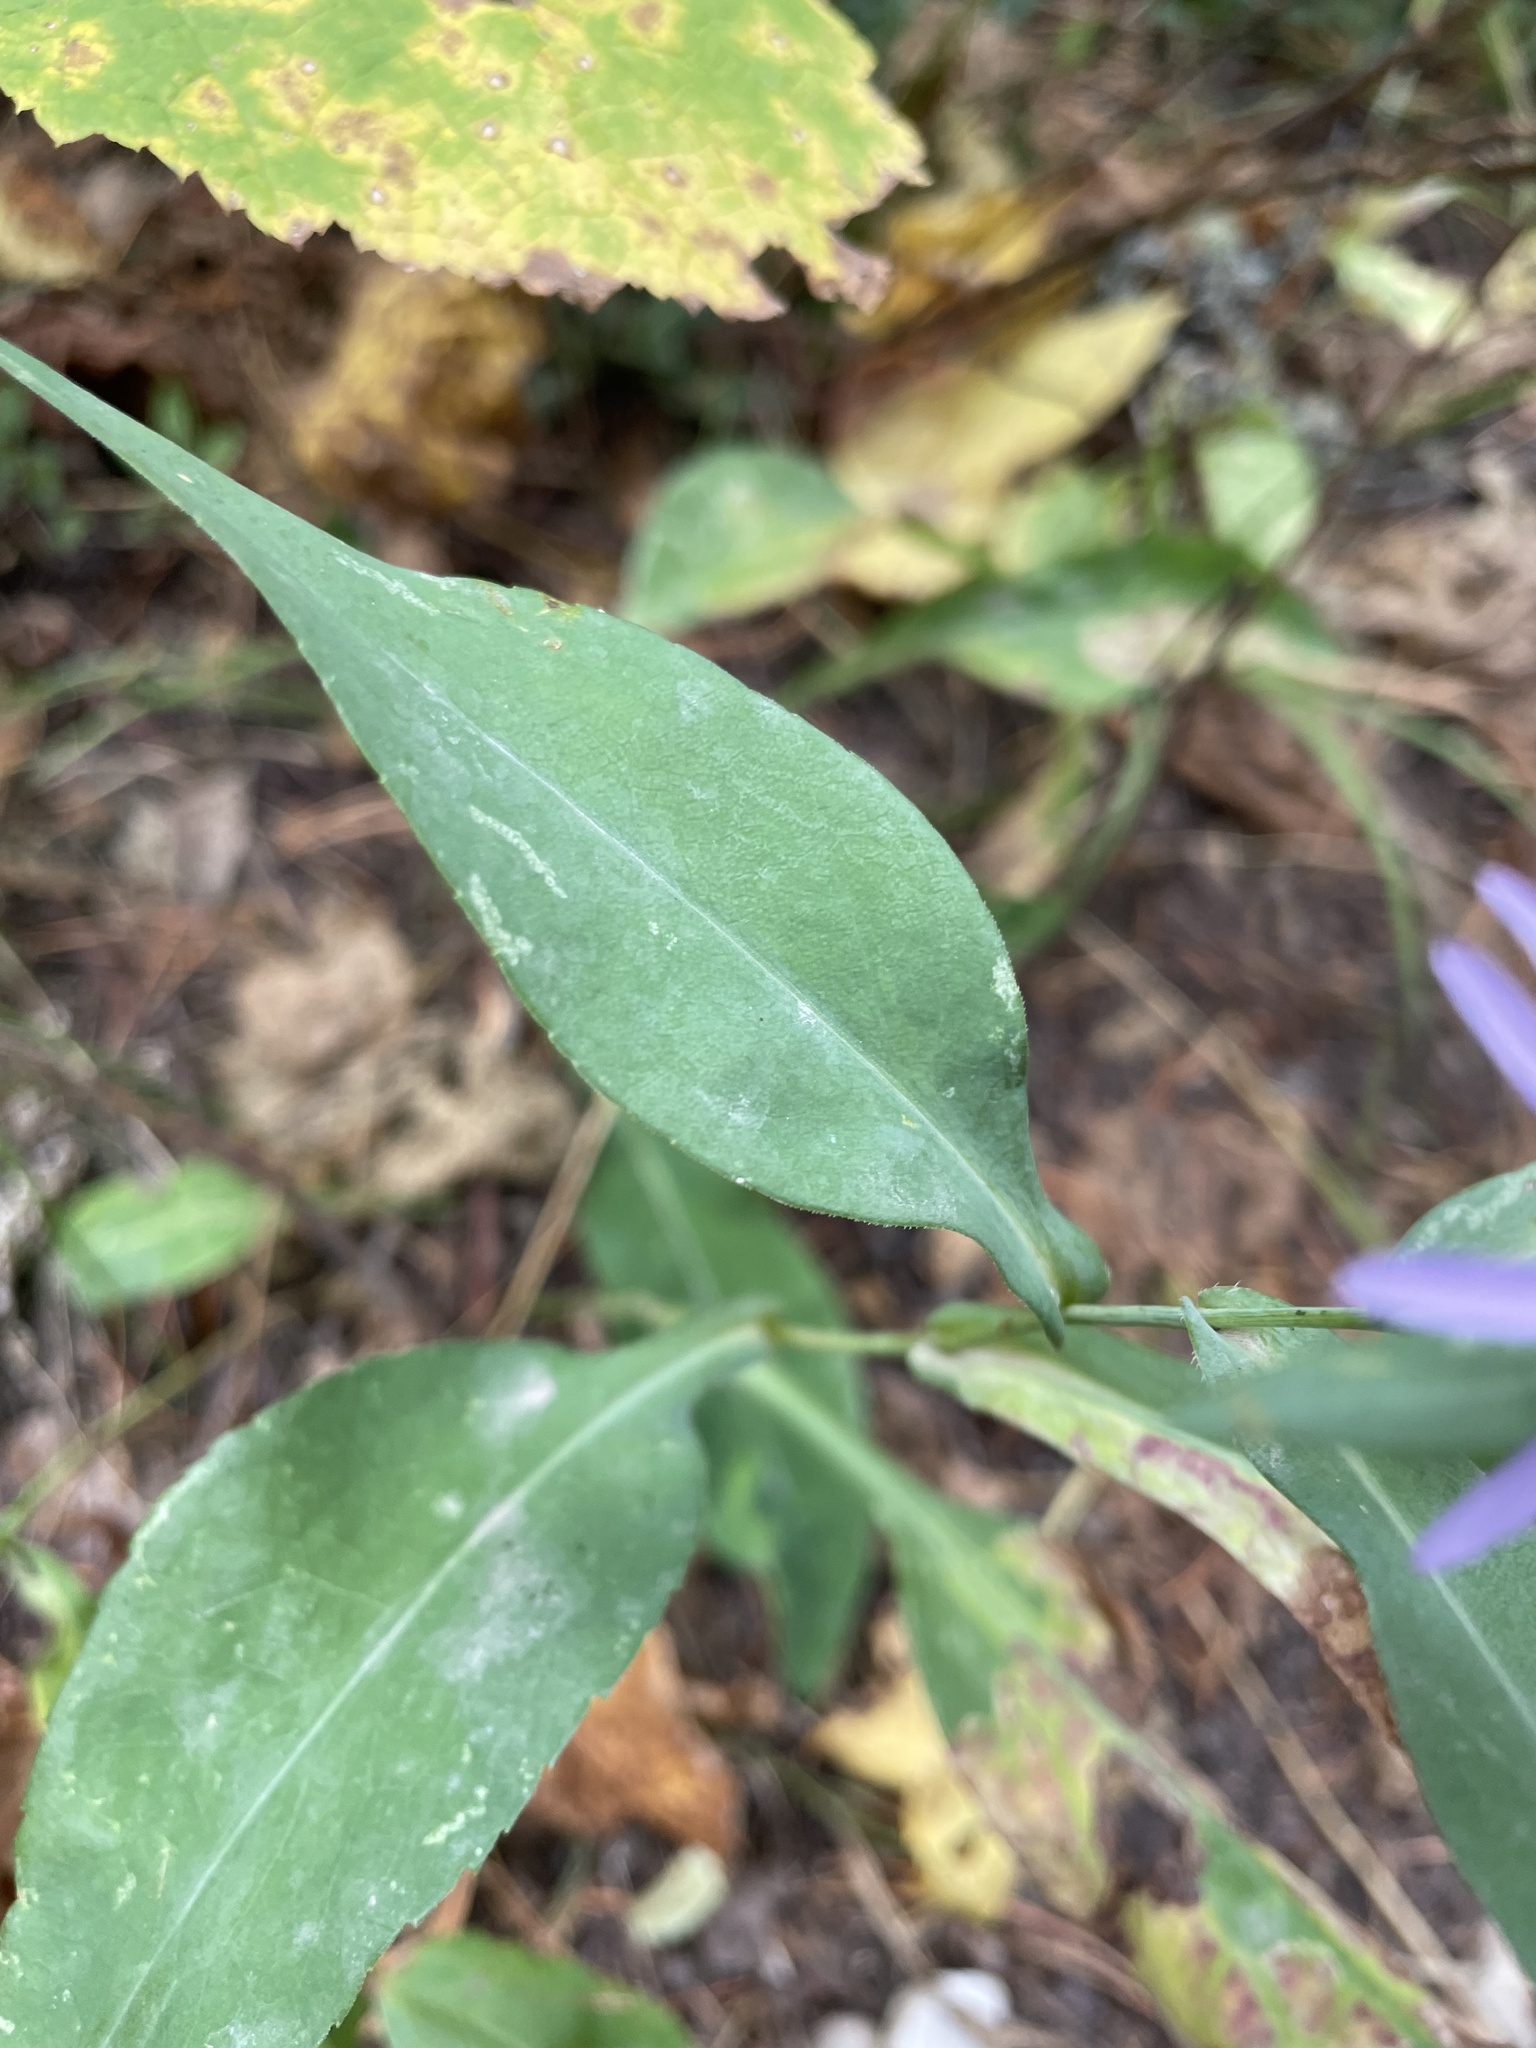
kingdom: Plantae
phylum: Tracheophyta
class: Magnoliopsida
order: Asterales
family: Asteraceae
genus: Symphyotrichum
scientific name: Symphyotrichum laeve
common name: Glaucous aster
